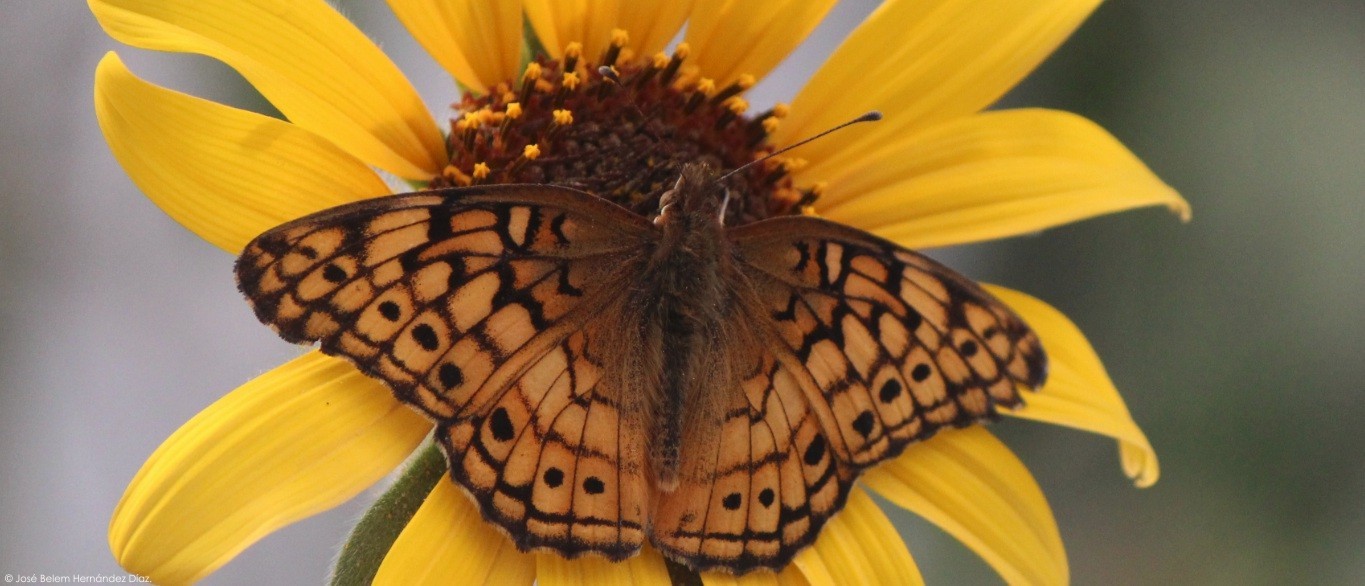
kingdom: Animalia
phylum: Arthropoda
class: Insecta
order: Lepidoptera
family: Nymphalidae
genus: Euptoieta
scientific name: Euptoieta claudia
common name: Variegated fritillary
